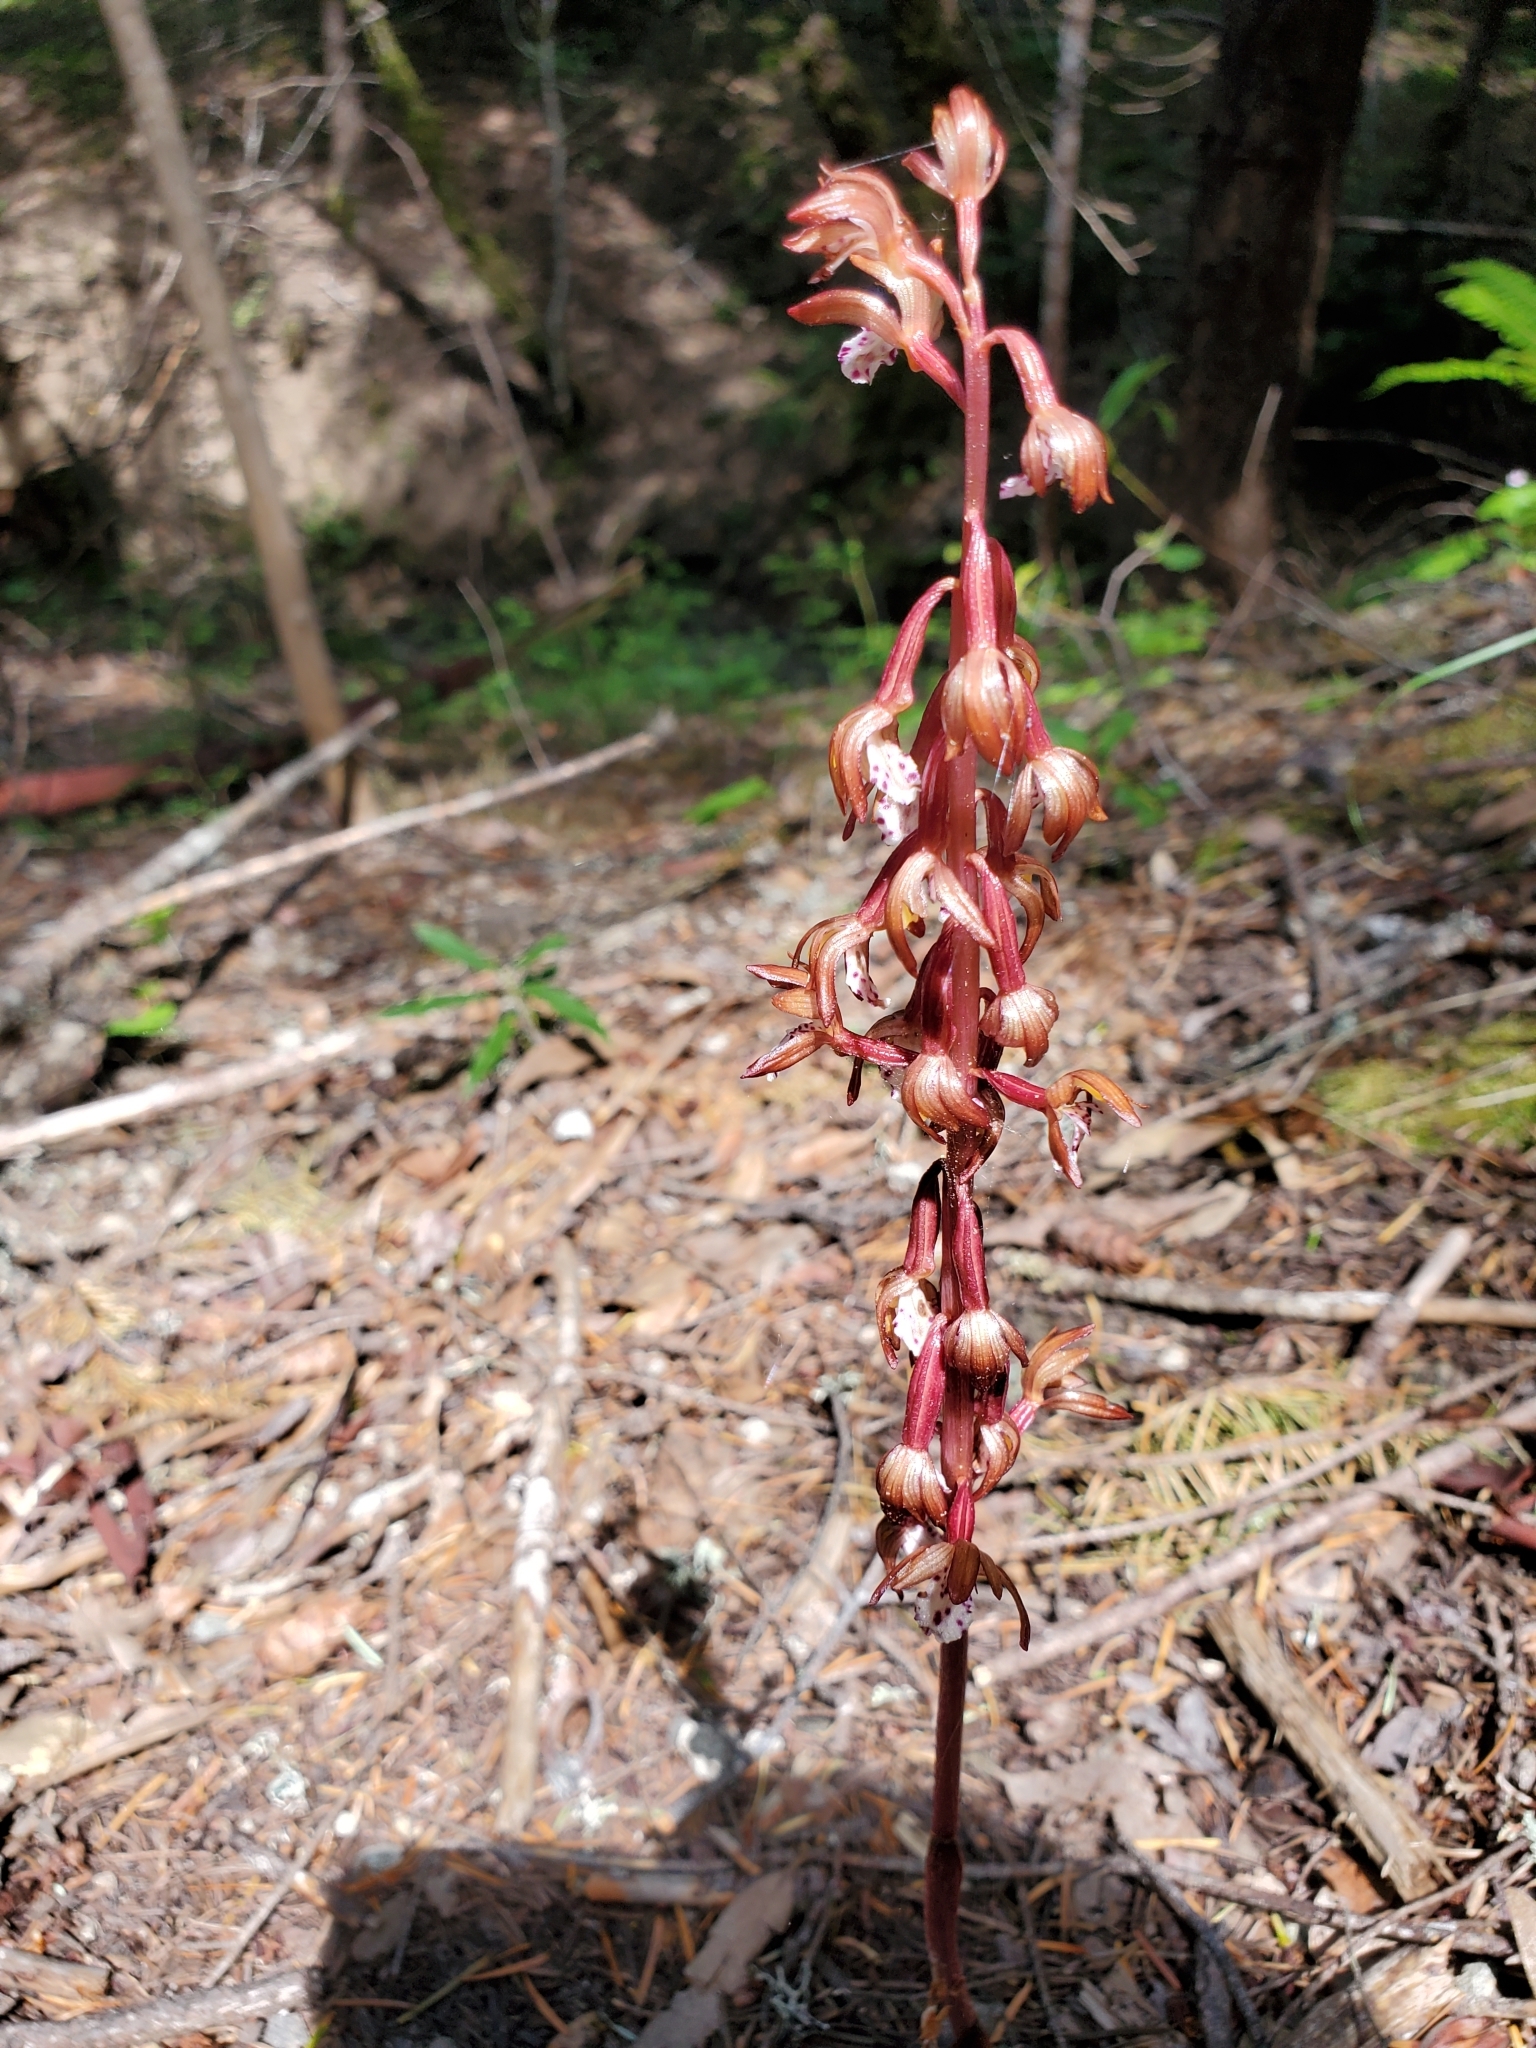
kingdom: Plantae
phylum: Tracheophyta
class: Liliopsida
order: Asparagales
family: Orchidaceae
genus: Corallorhiza
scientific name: Corallorhiza maculata
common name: Spotted coralroot
